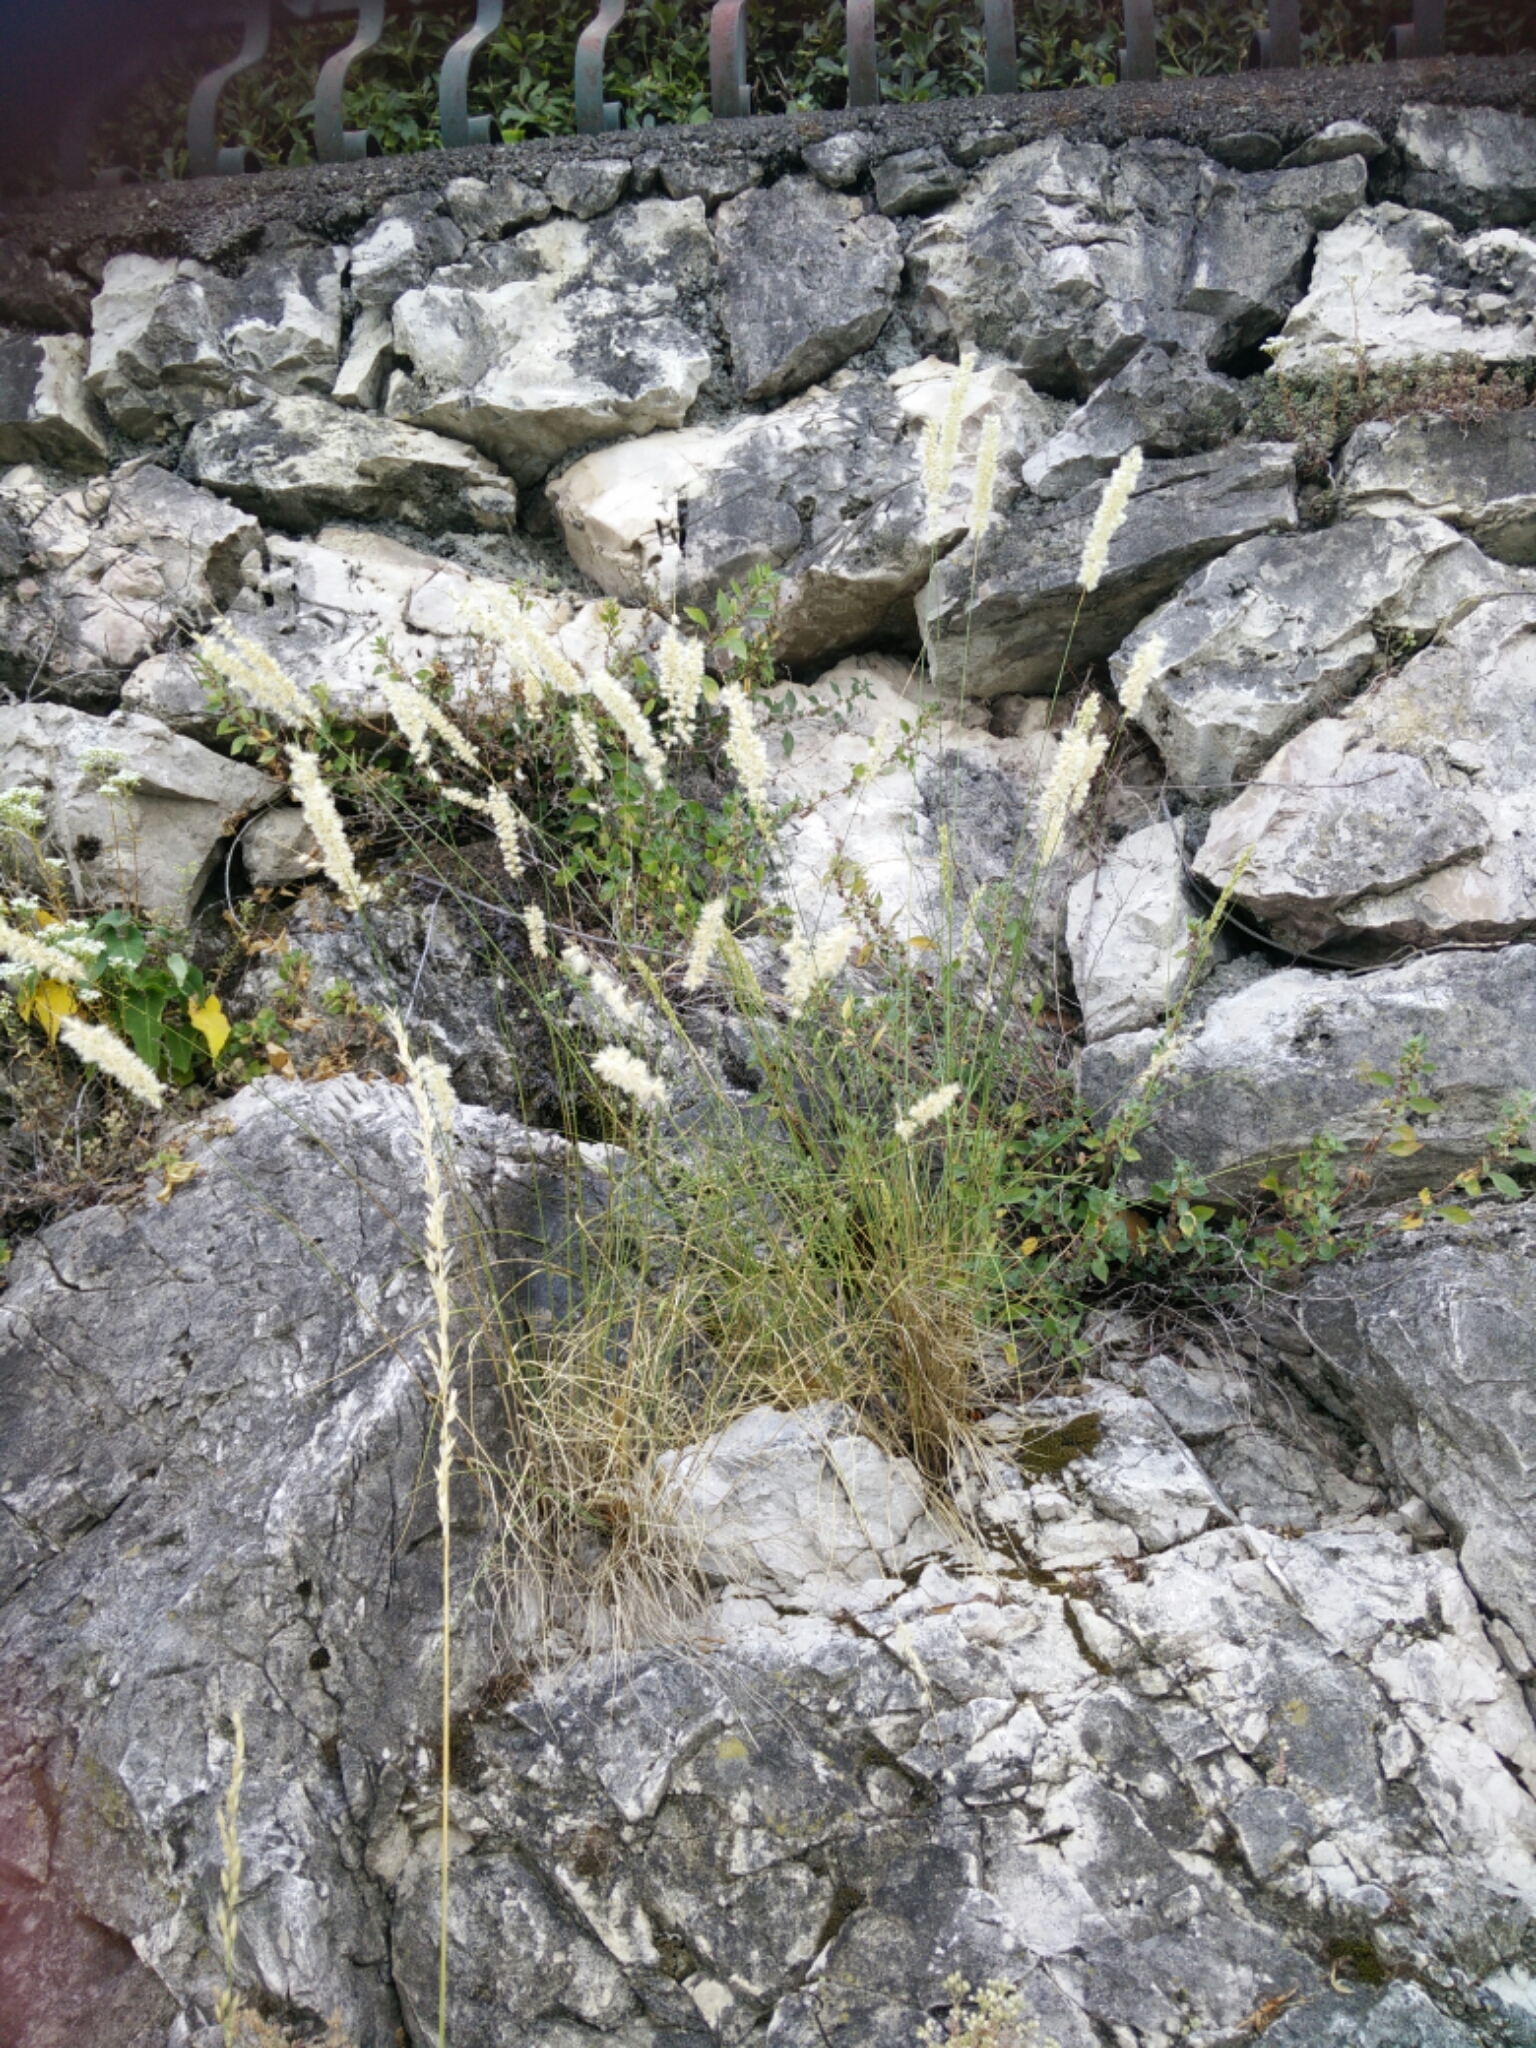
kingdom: Plantae
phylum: Tracheophyta
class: Liliopsida
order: Poales
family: Poaceae
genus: Melica
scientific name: Melica ciliata
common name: Hairy melicgrass
